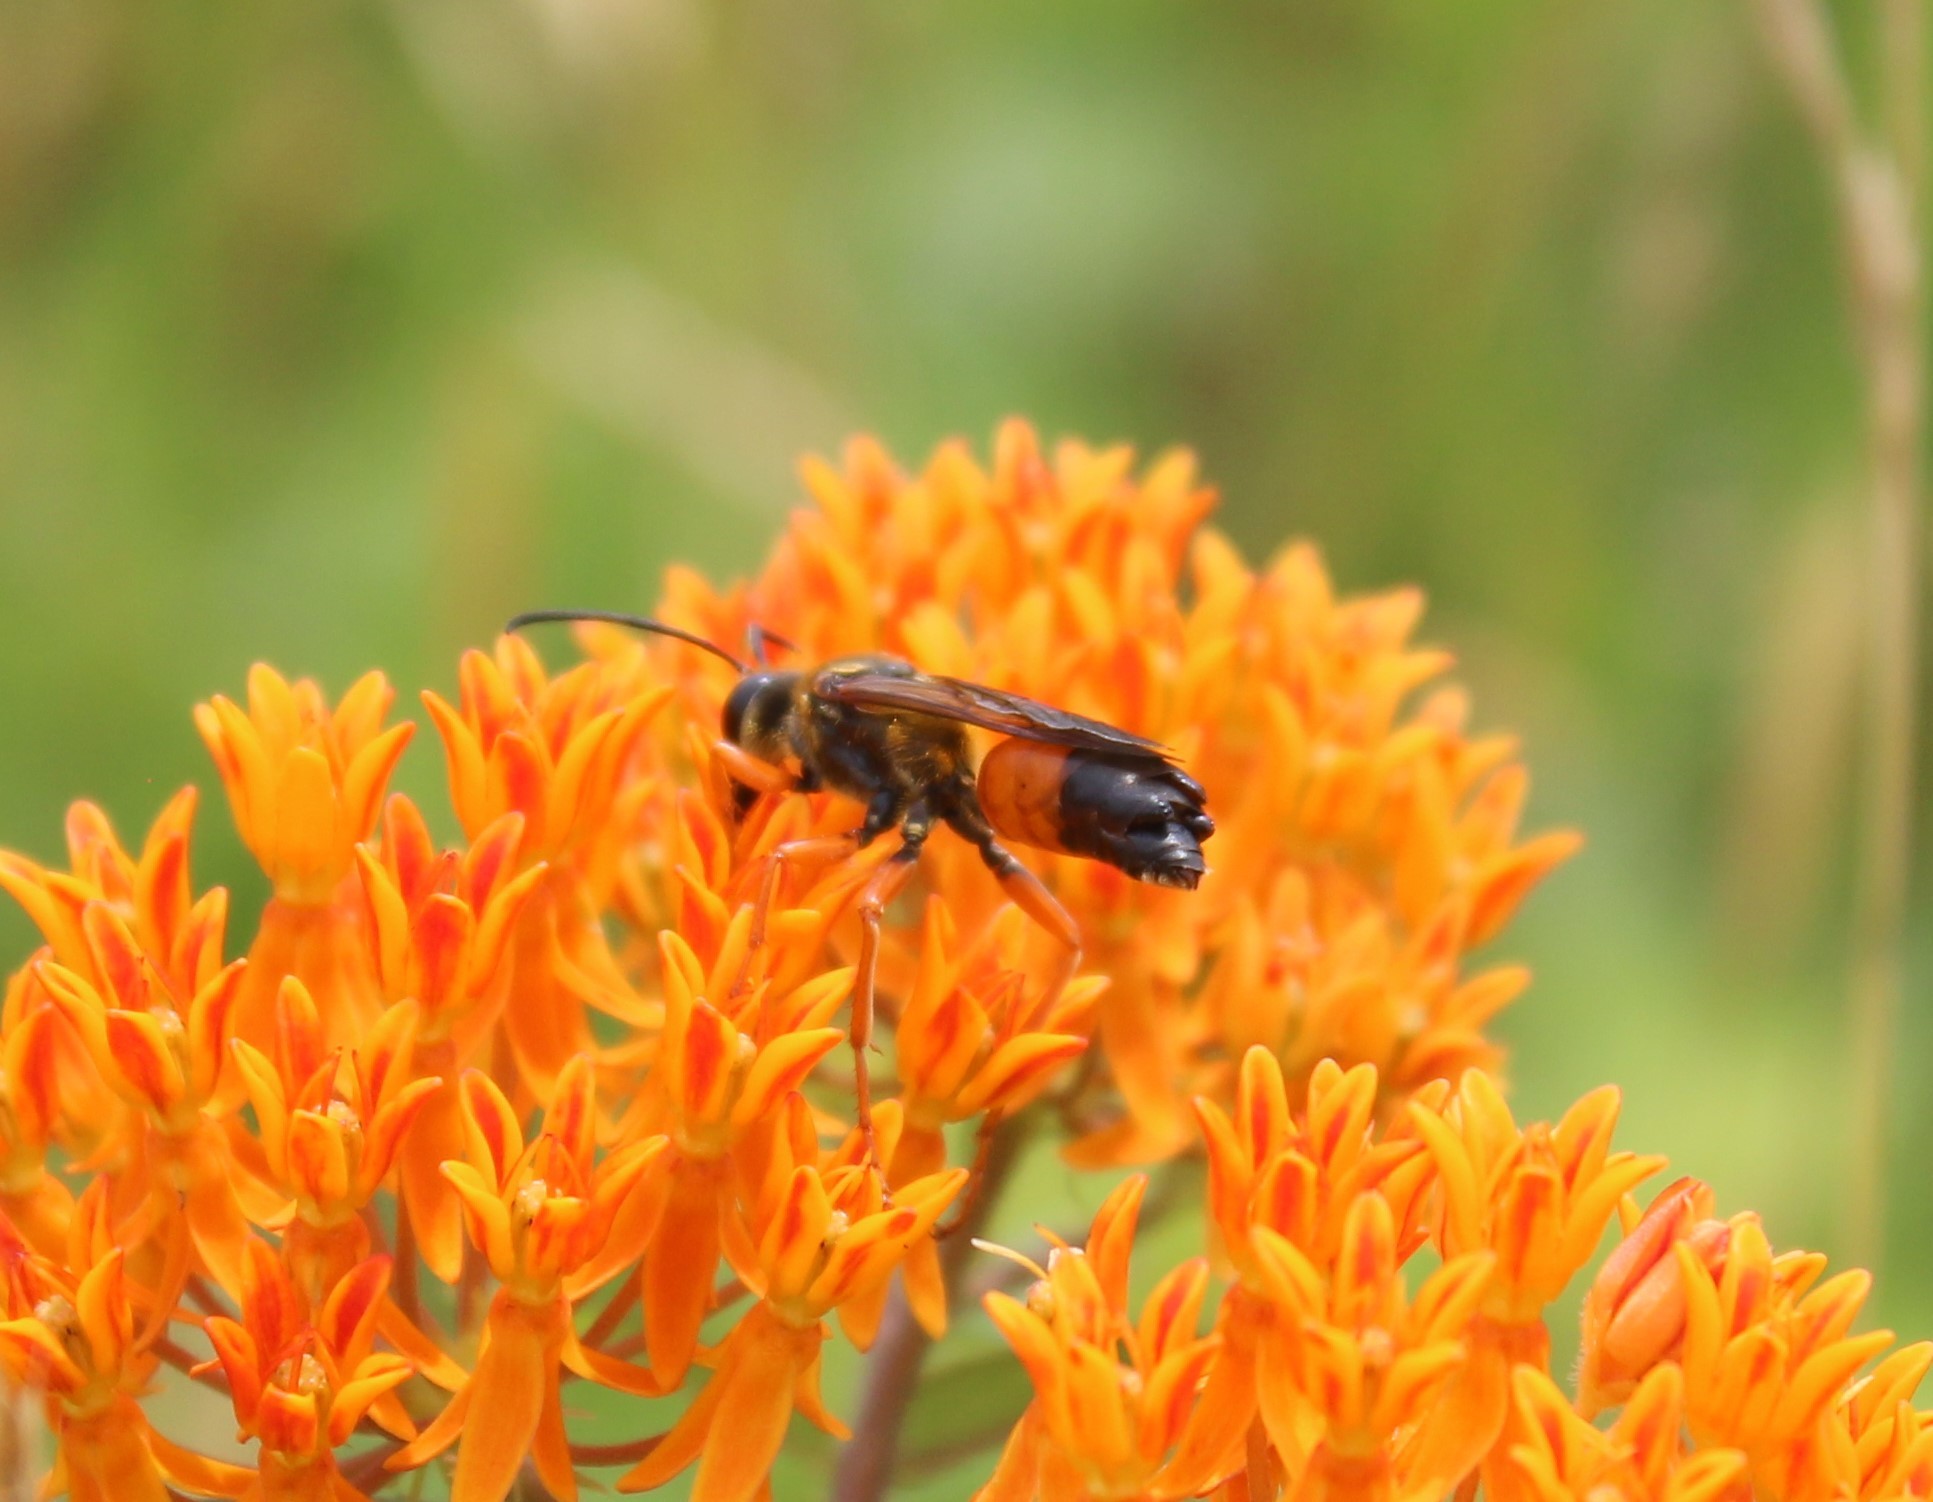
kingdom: Animalia
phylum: Arthropoda
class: Insecta
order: Hymenoptera
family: Sphecidae
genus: Sphex
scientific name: Sphex ichneumoneus
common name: Great golden digger wasp
